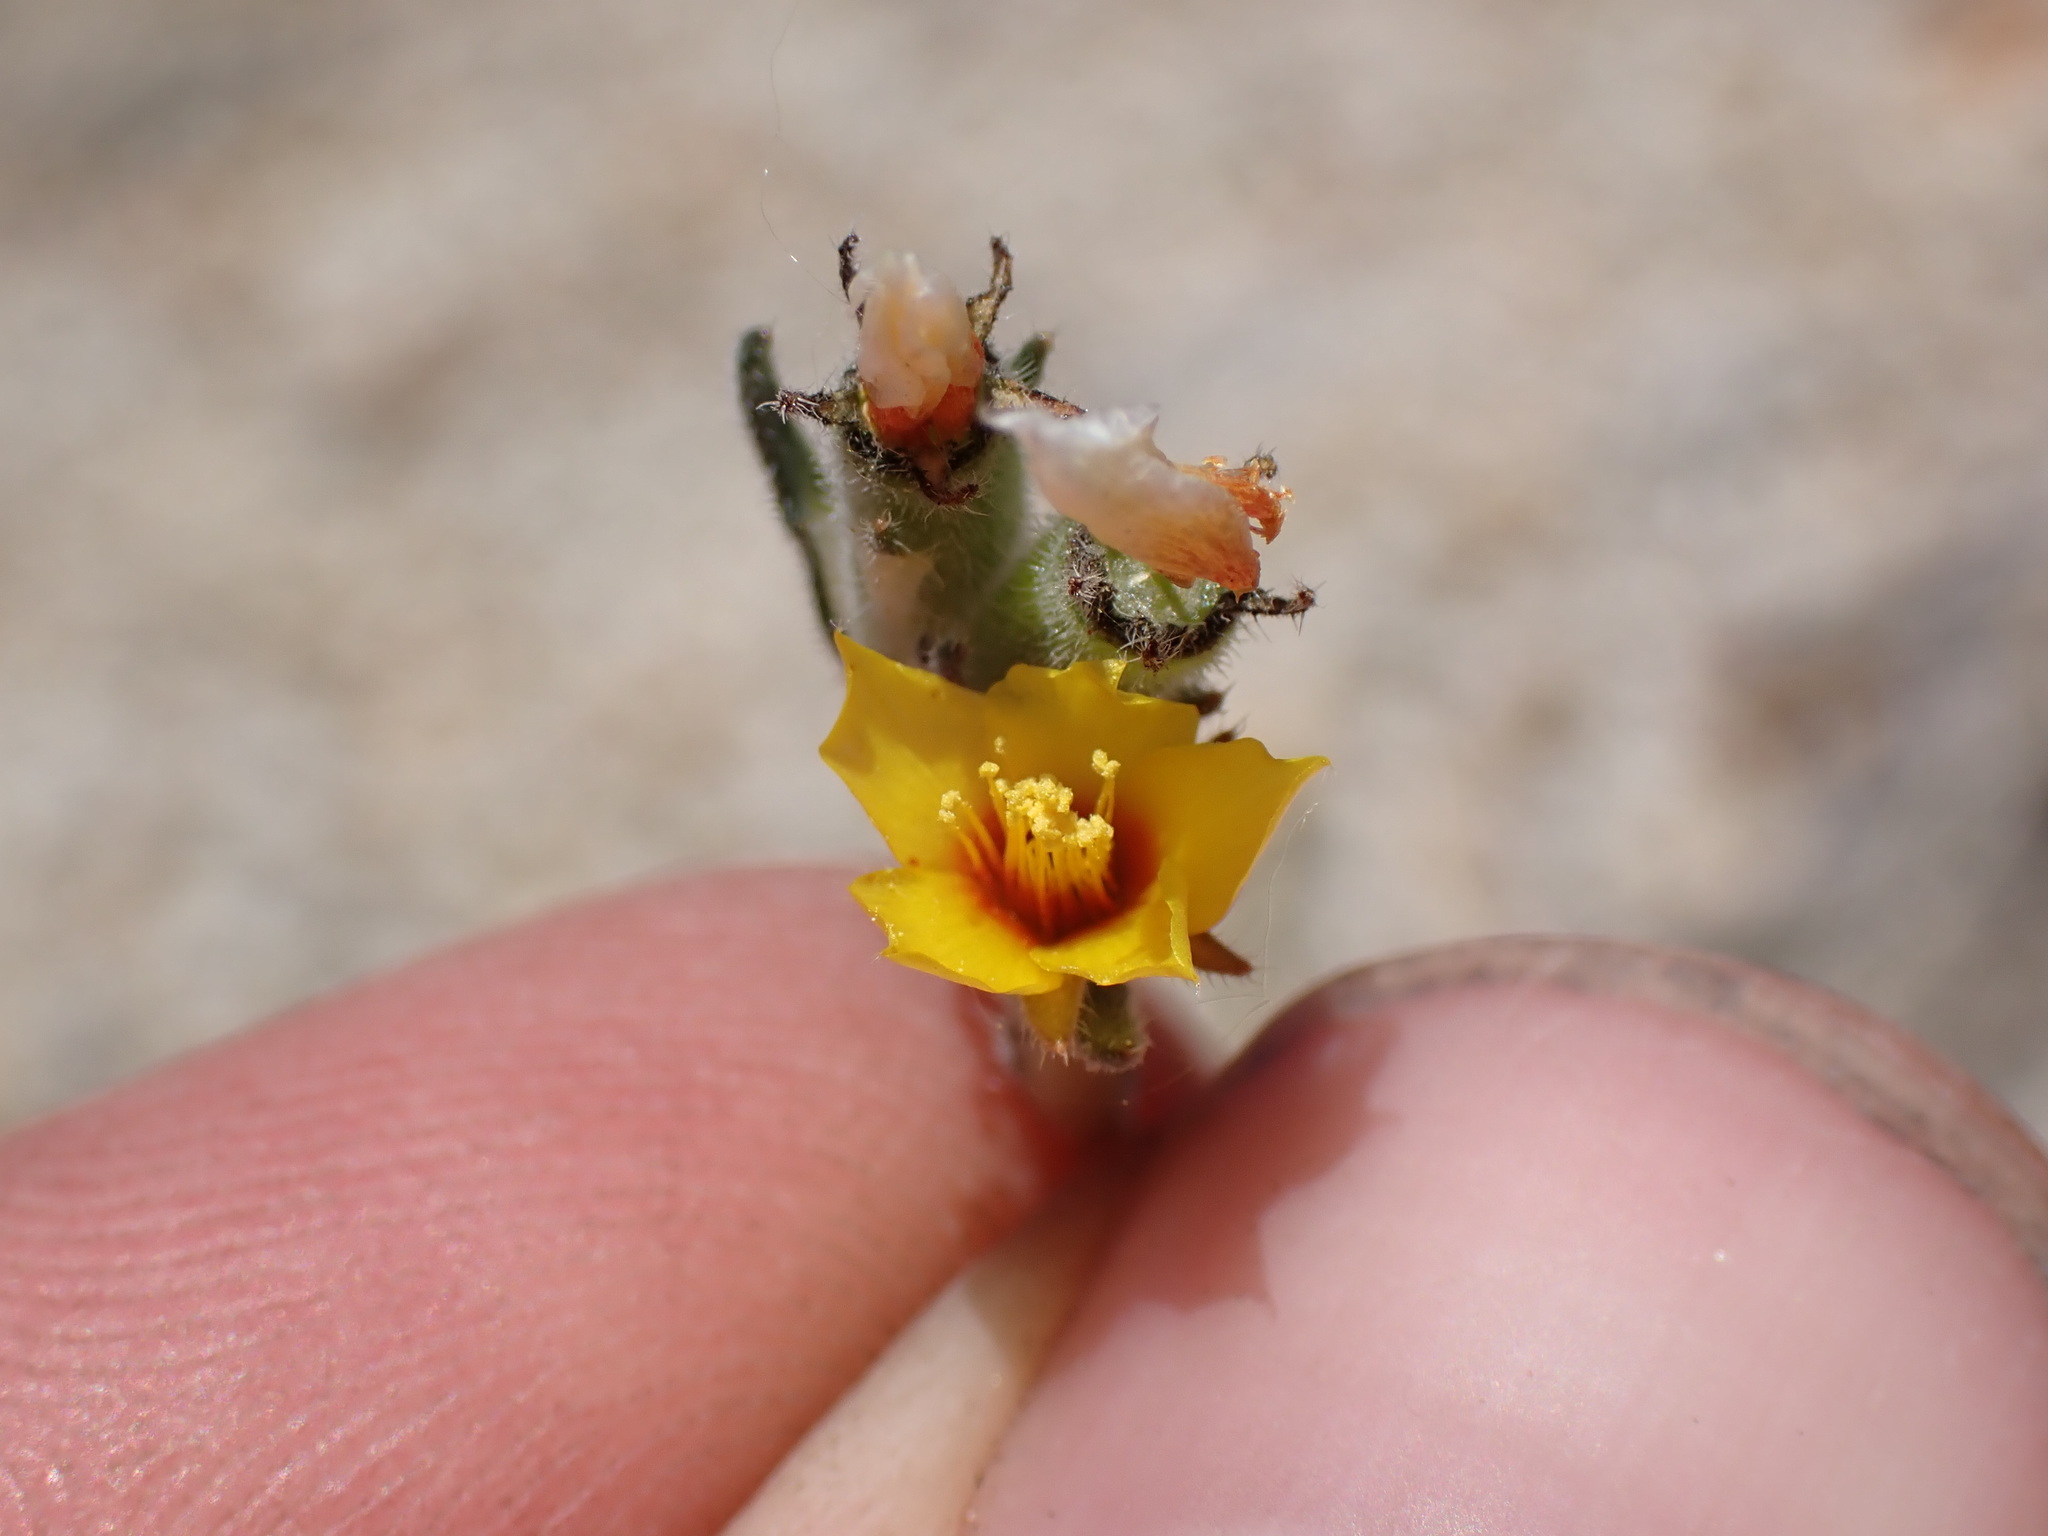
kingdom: Plantae
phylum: Tracheophyta
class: Magnoliopsida
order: Cornales
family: Loasaceae
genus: Mentzelia
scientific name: Mentzelia montana
